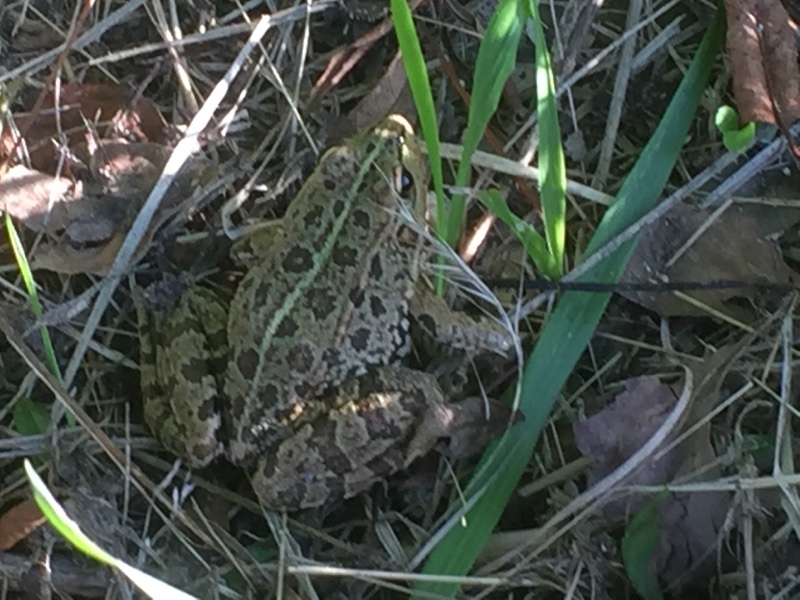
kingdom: Animalia
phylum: Chordata
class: Amphibia
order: Anura
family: Ranidae
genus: Pelophylax
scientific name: Pelophylax perezi
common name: Perez's frog
